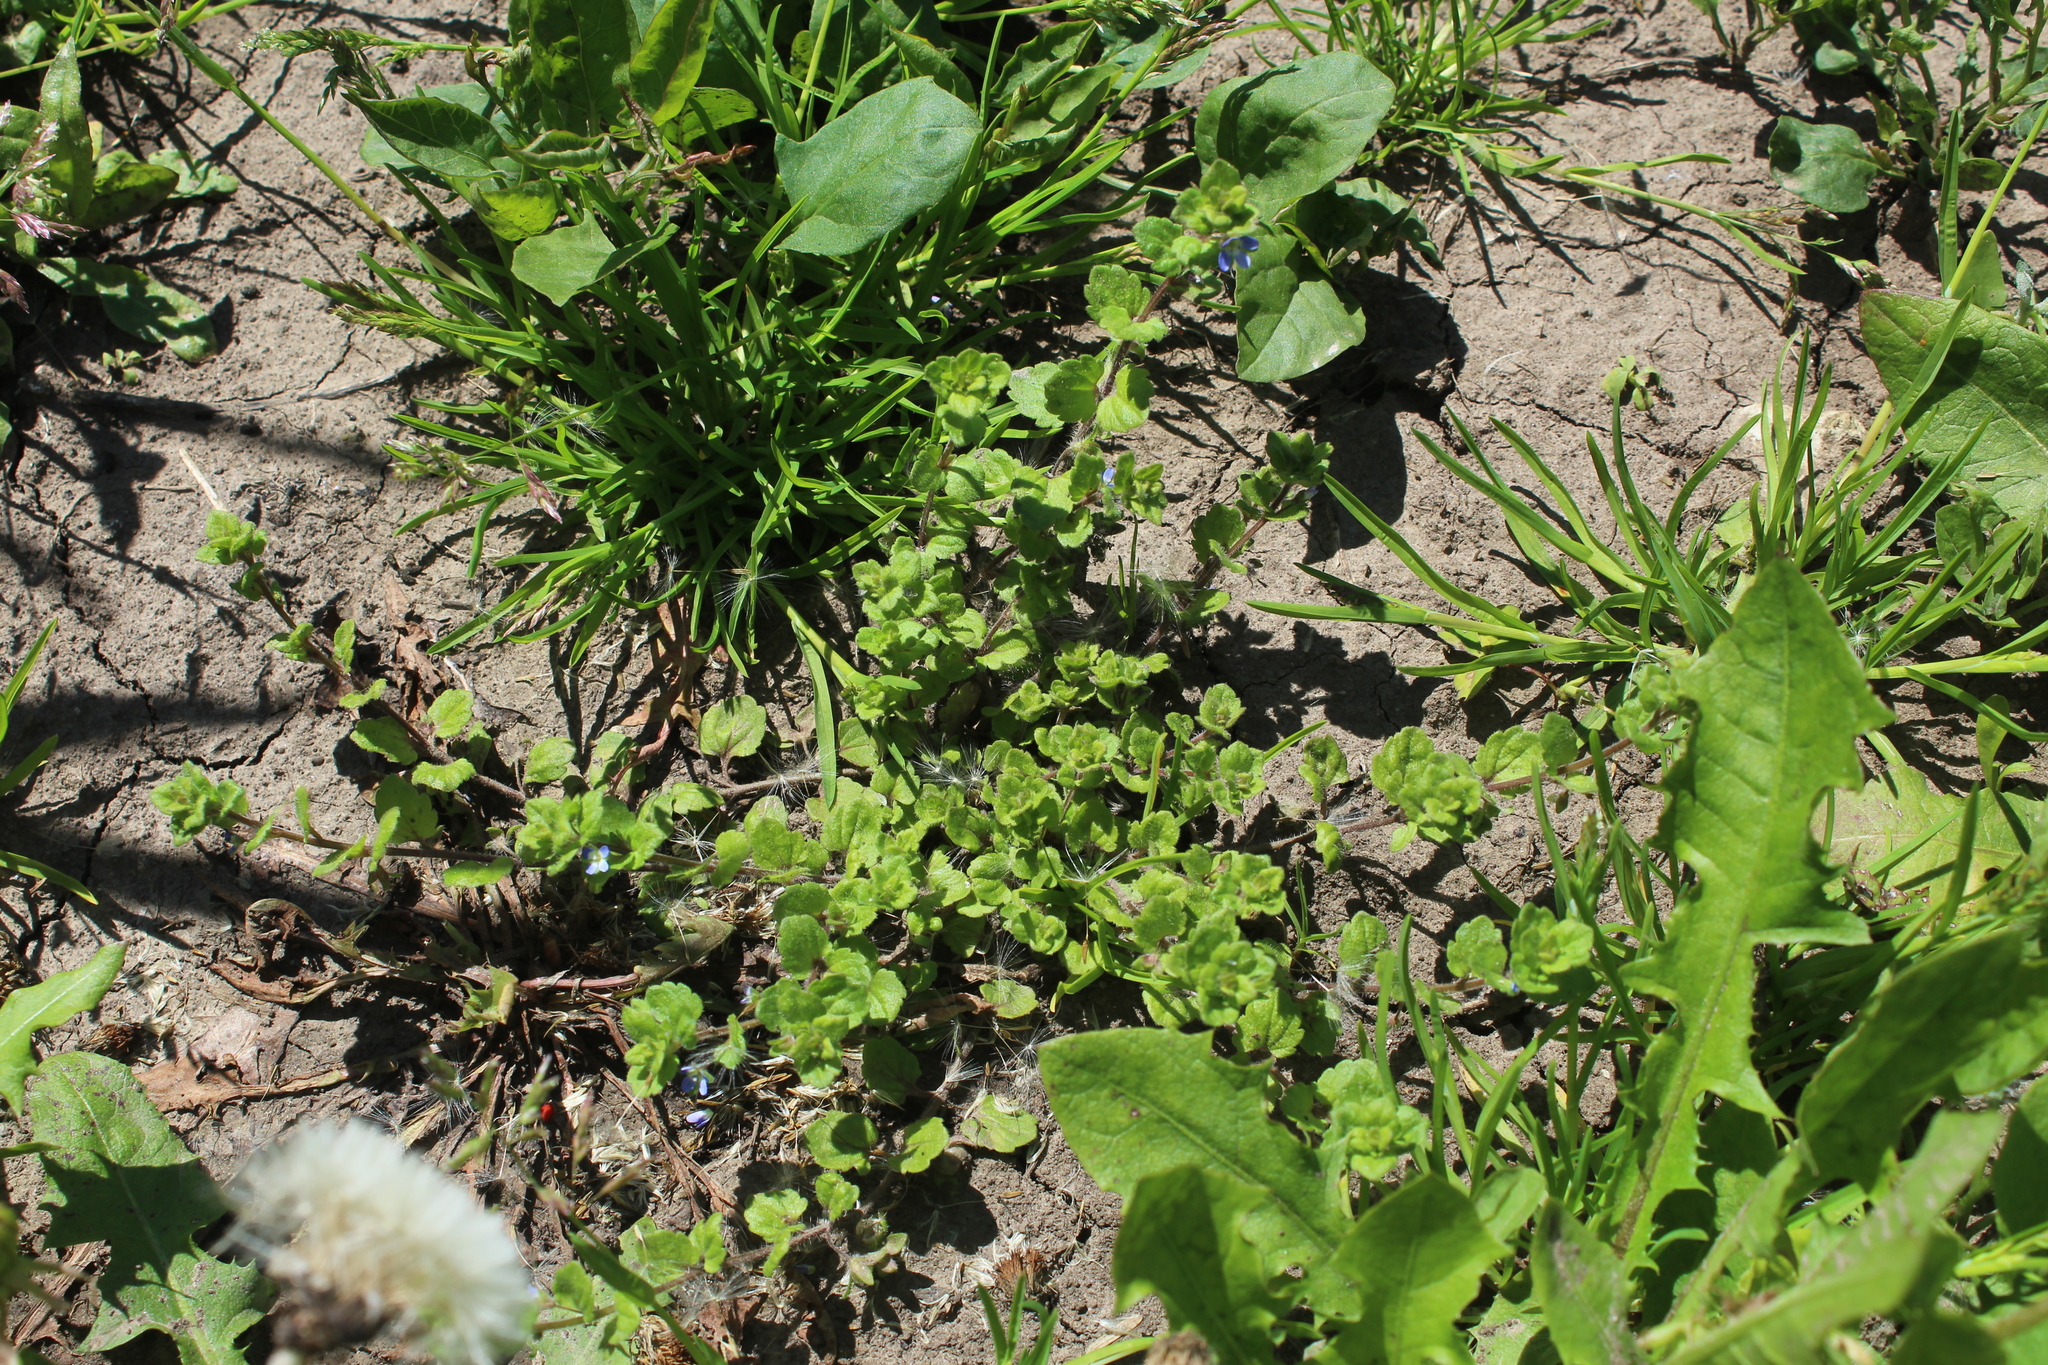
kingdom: Plantae
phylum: Tracheophyta
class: Magnoliopsida
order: Lamiales
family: Plantaginaceae
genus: Veronica
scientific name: Veronica opaca
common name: Dark speedwell
